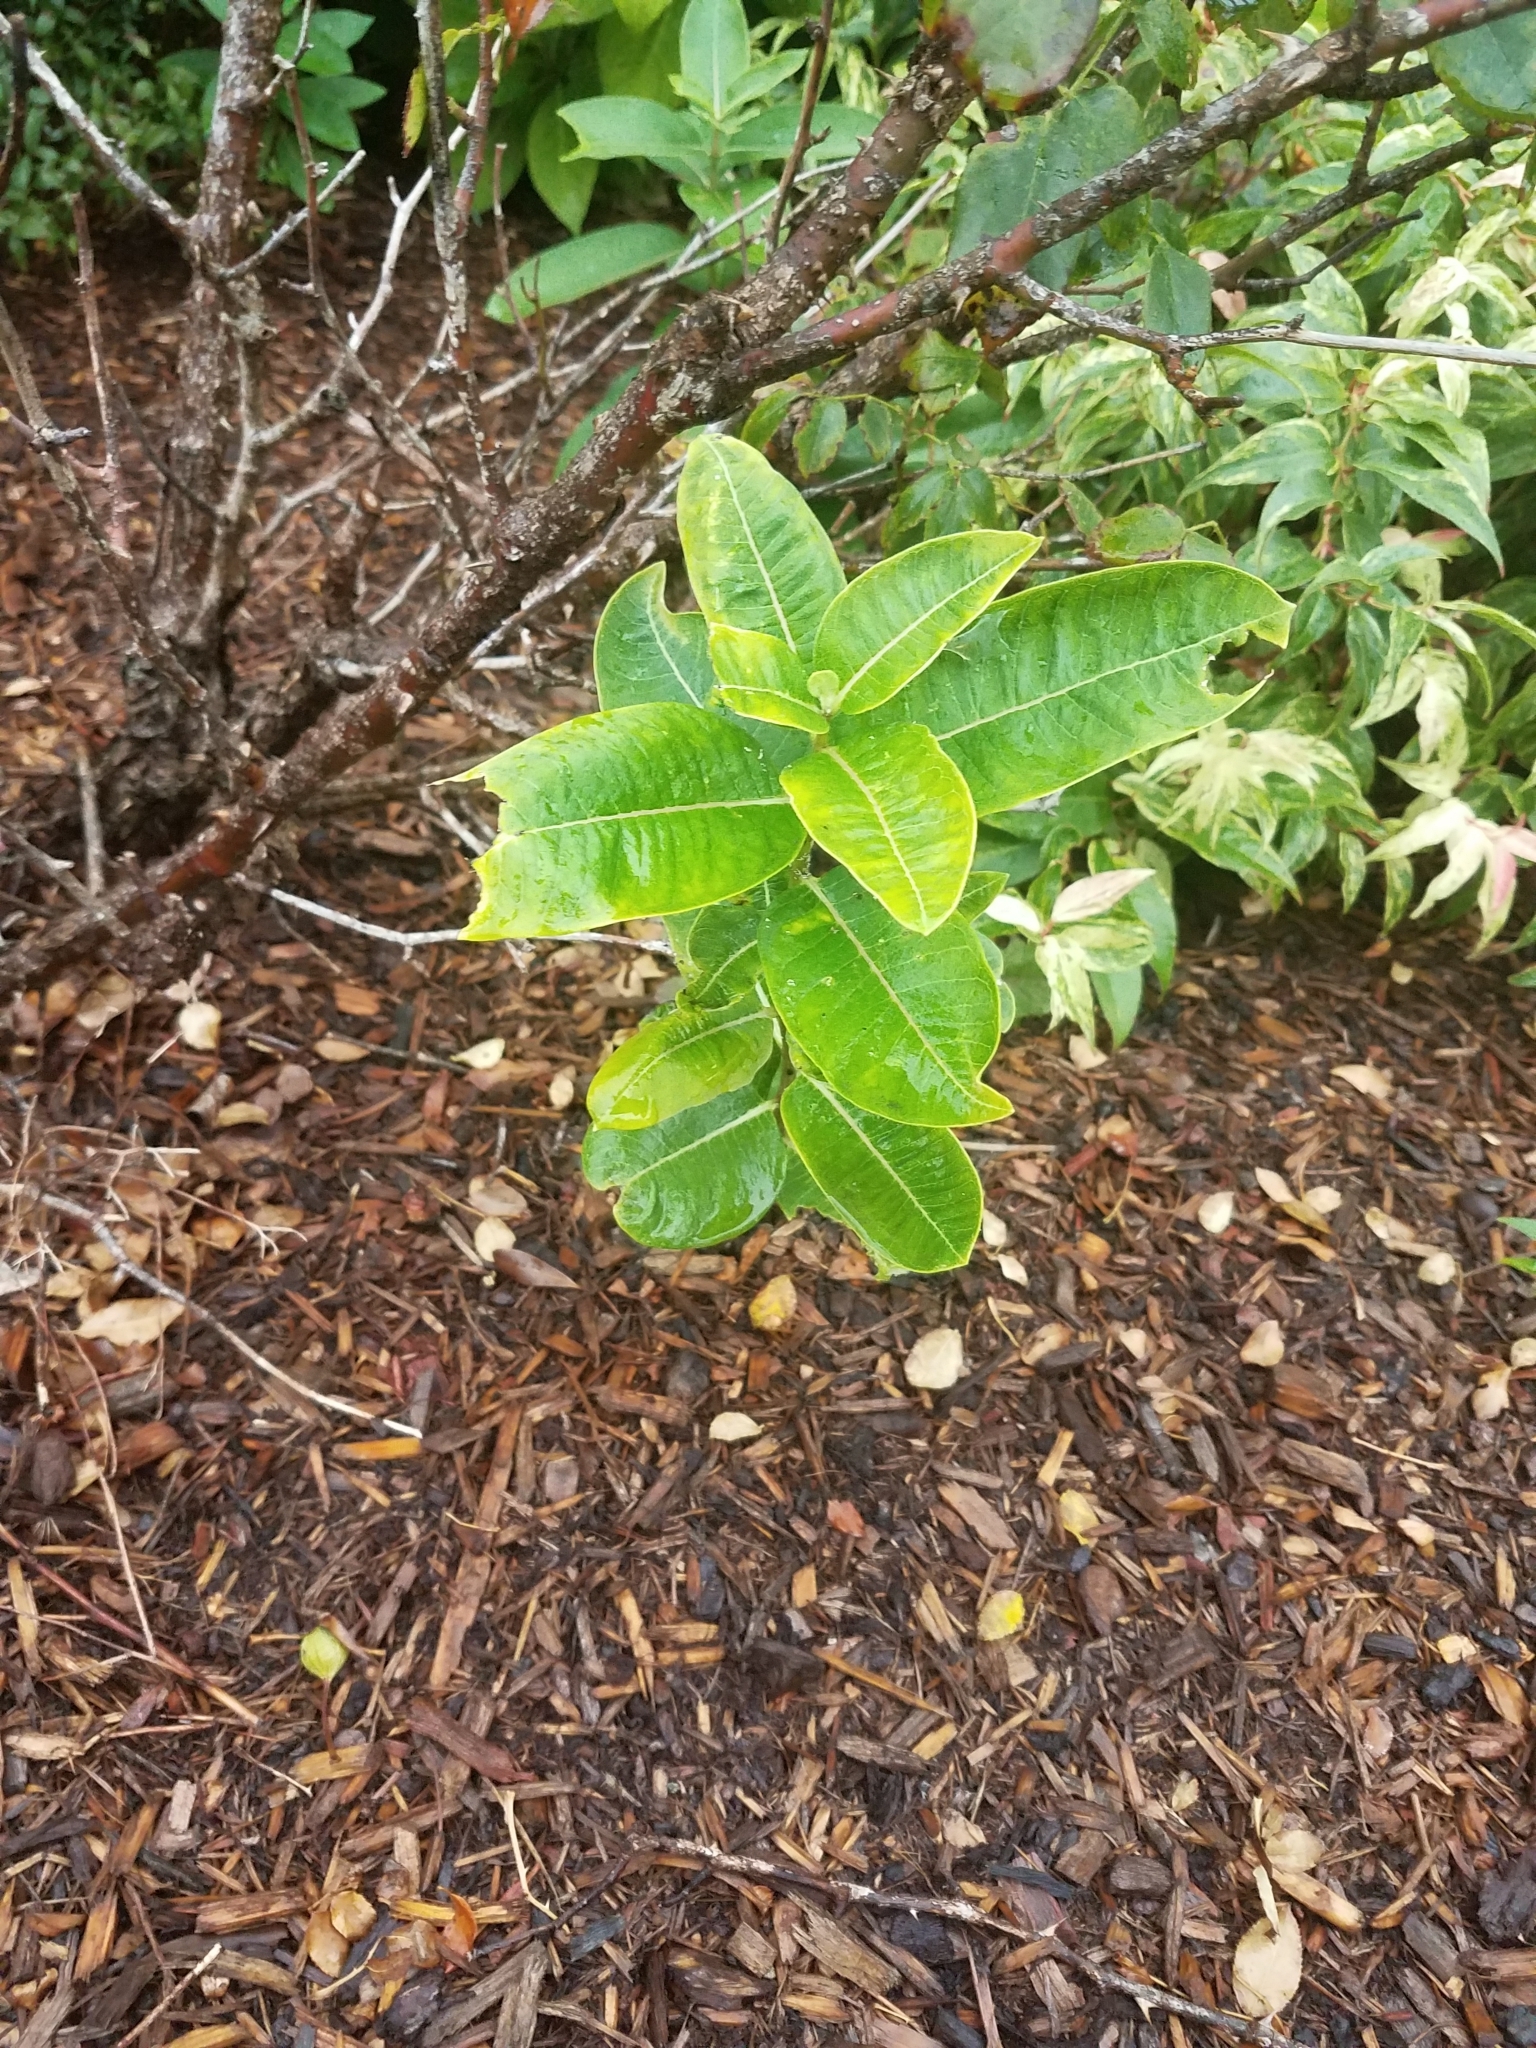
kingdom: Plantae
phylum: Tracheophyta
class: Magnoliopsida
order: Gentianales
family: Apocynaceae
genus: Asclepias
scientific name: Asclepias syriaca
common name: Common milkweed
